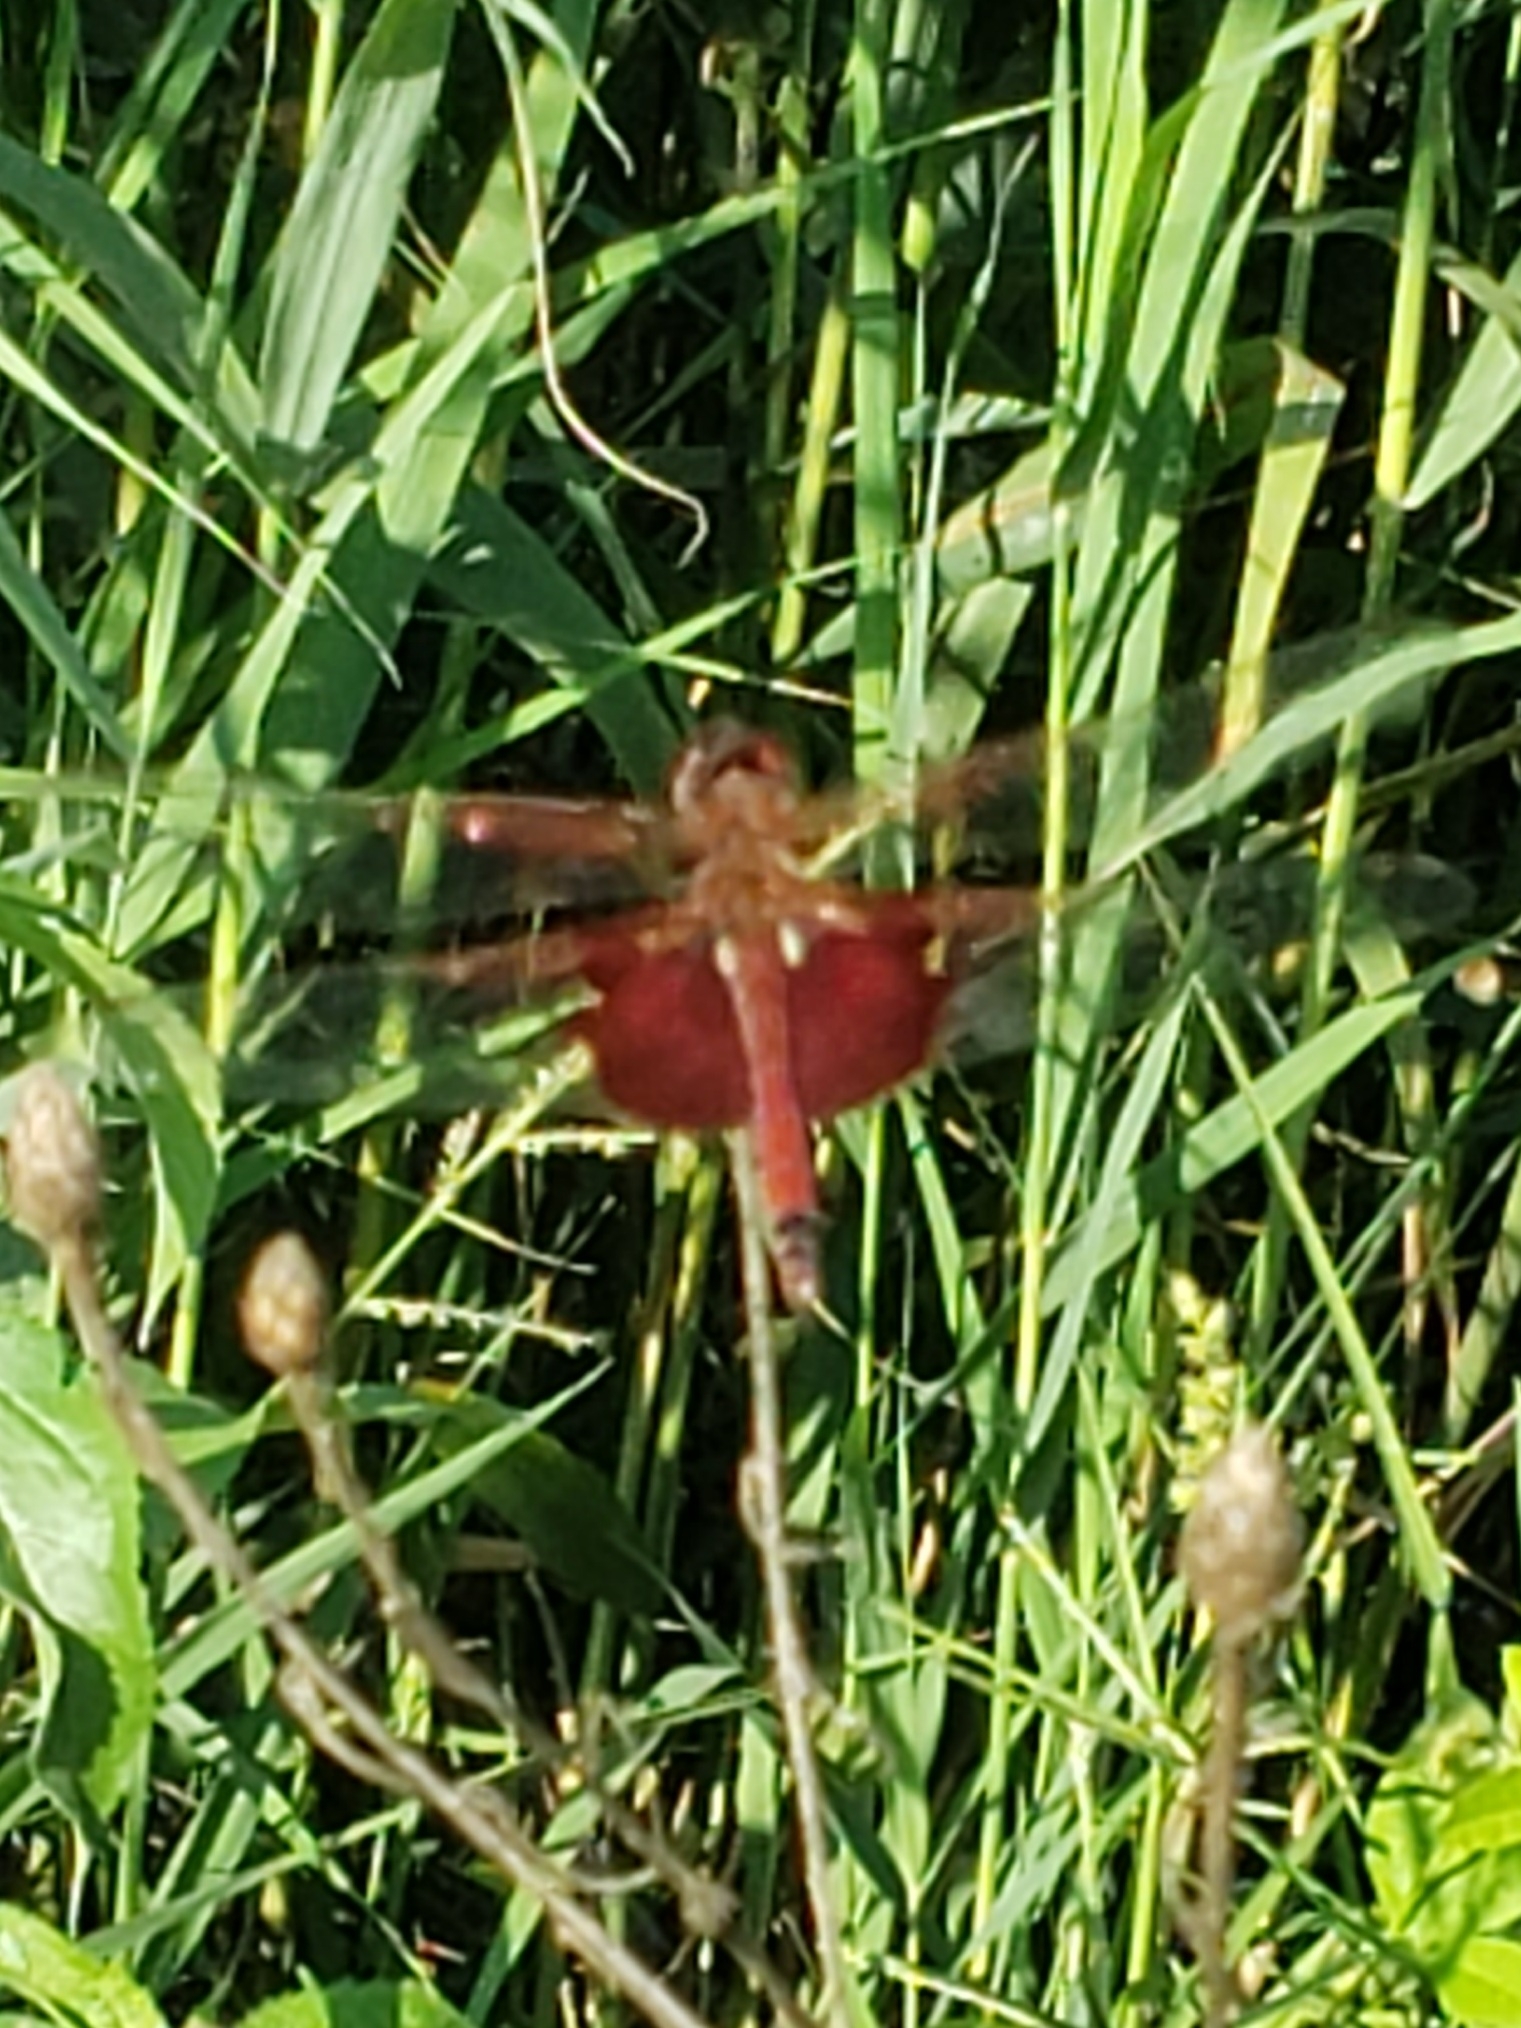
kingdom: Animalia
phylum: Arthropoda
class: Insecta
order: Odonata
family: Libellulidae
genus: Tramea
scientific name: Tramea carolina
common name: Carolina saddlebags
